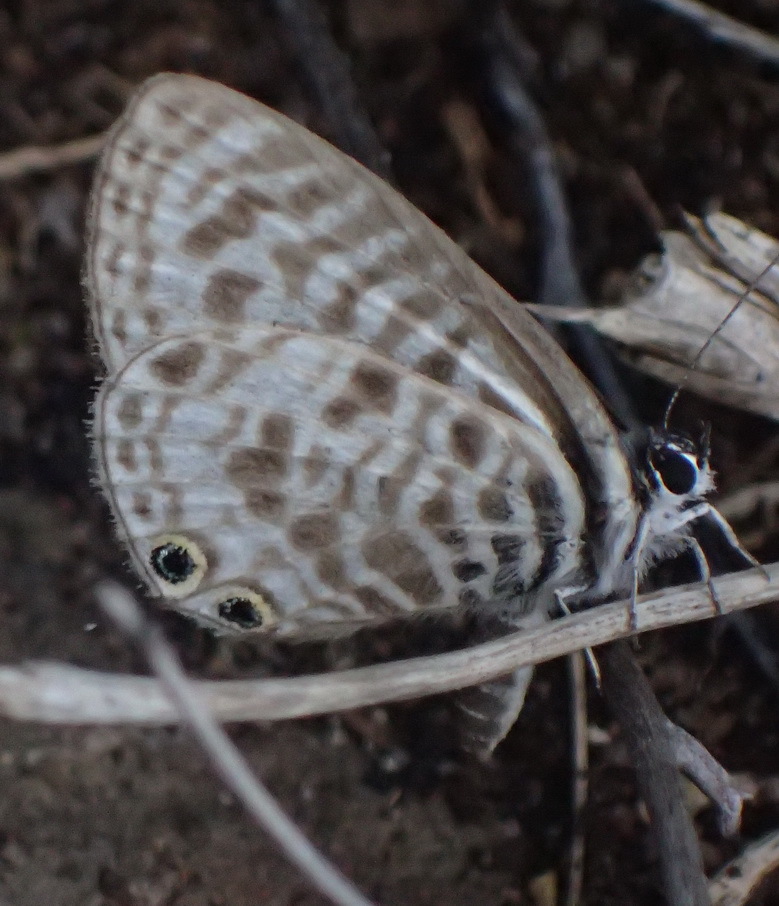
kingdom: Animalia
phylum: Arthropoda
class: Insecta
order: Lepidoptera
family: Lycaenidae
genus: Leptotes
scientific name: Leptotes
